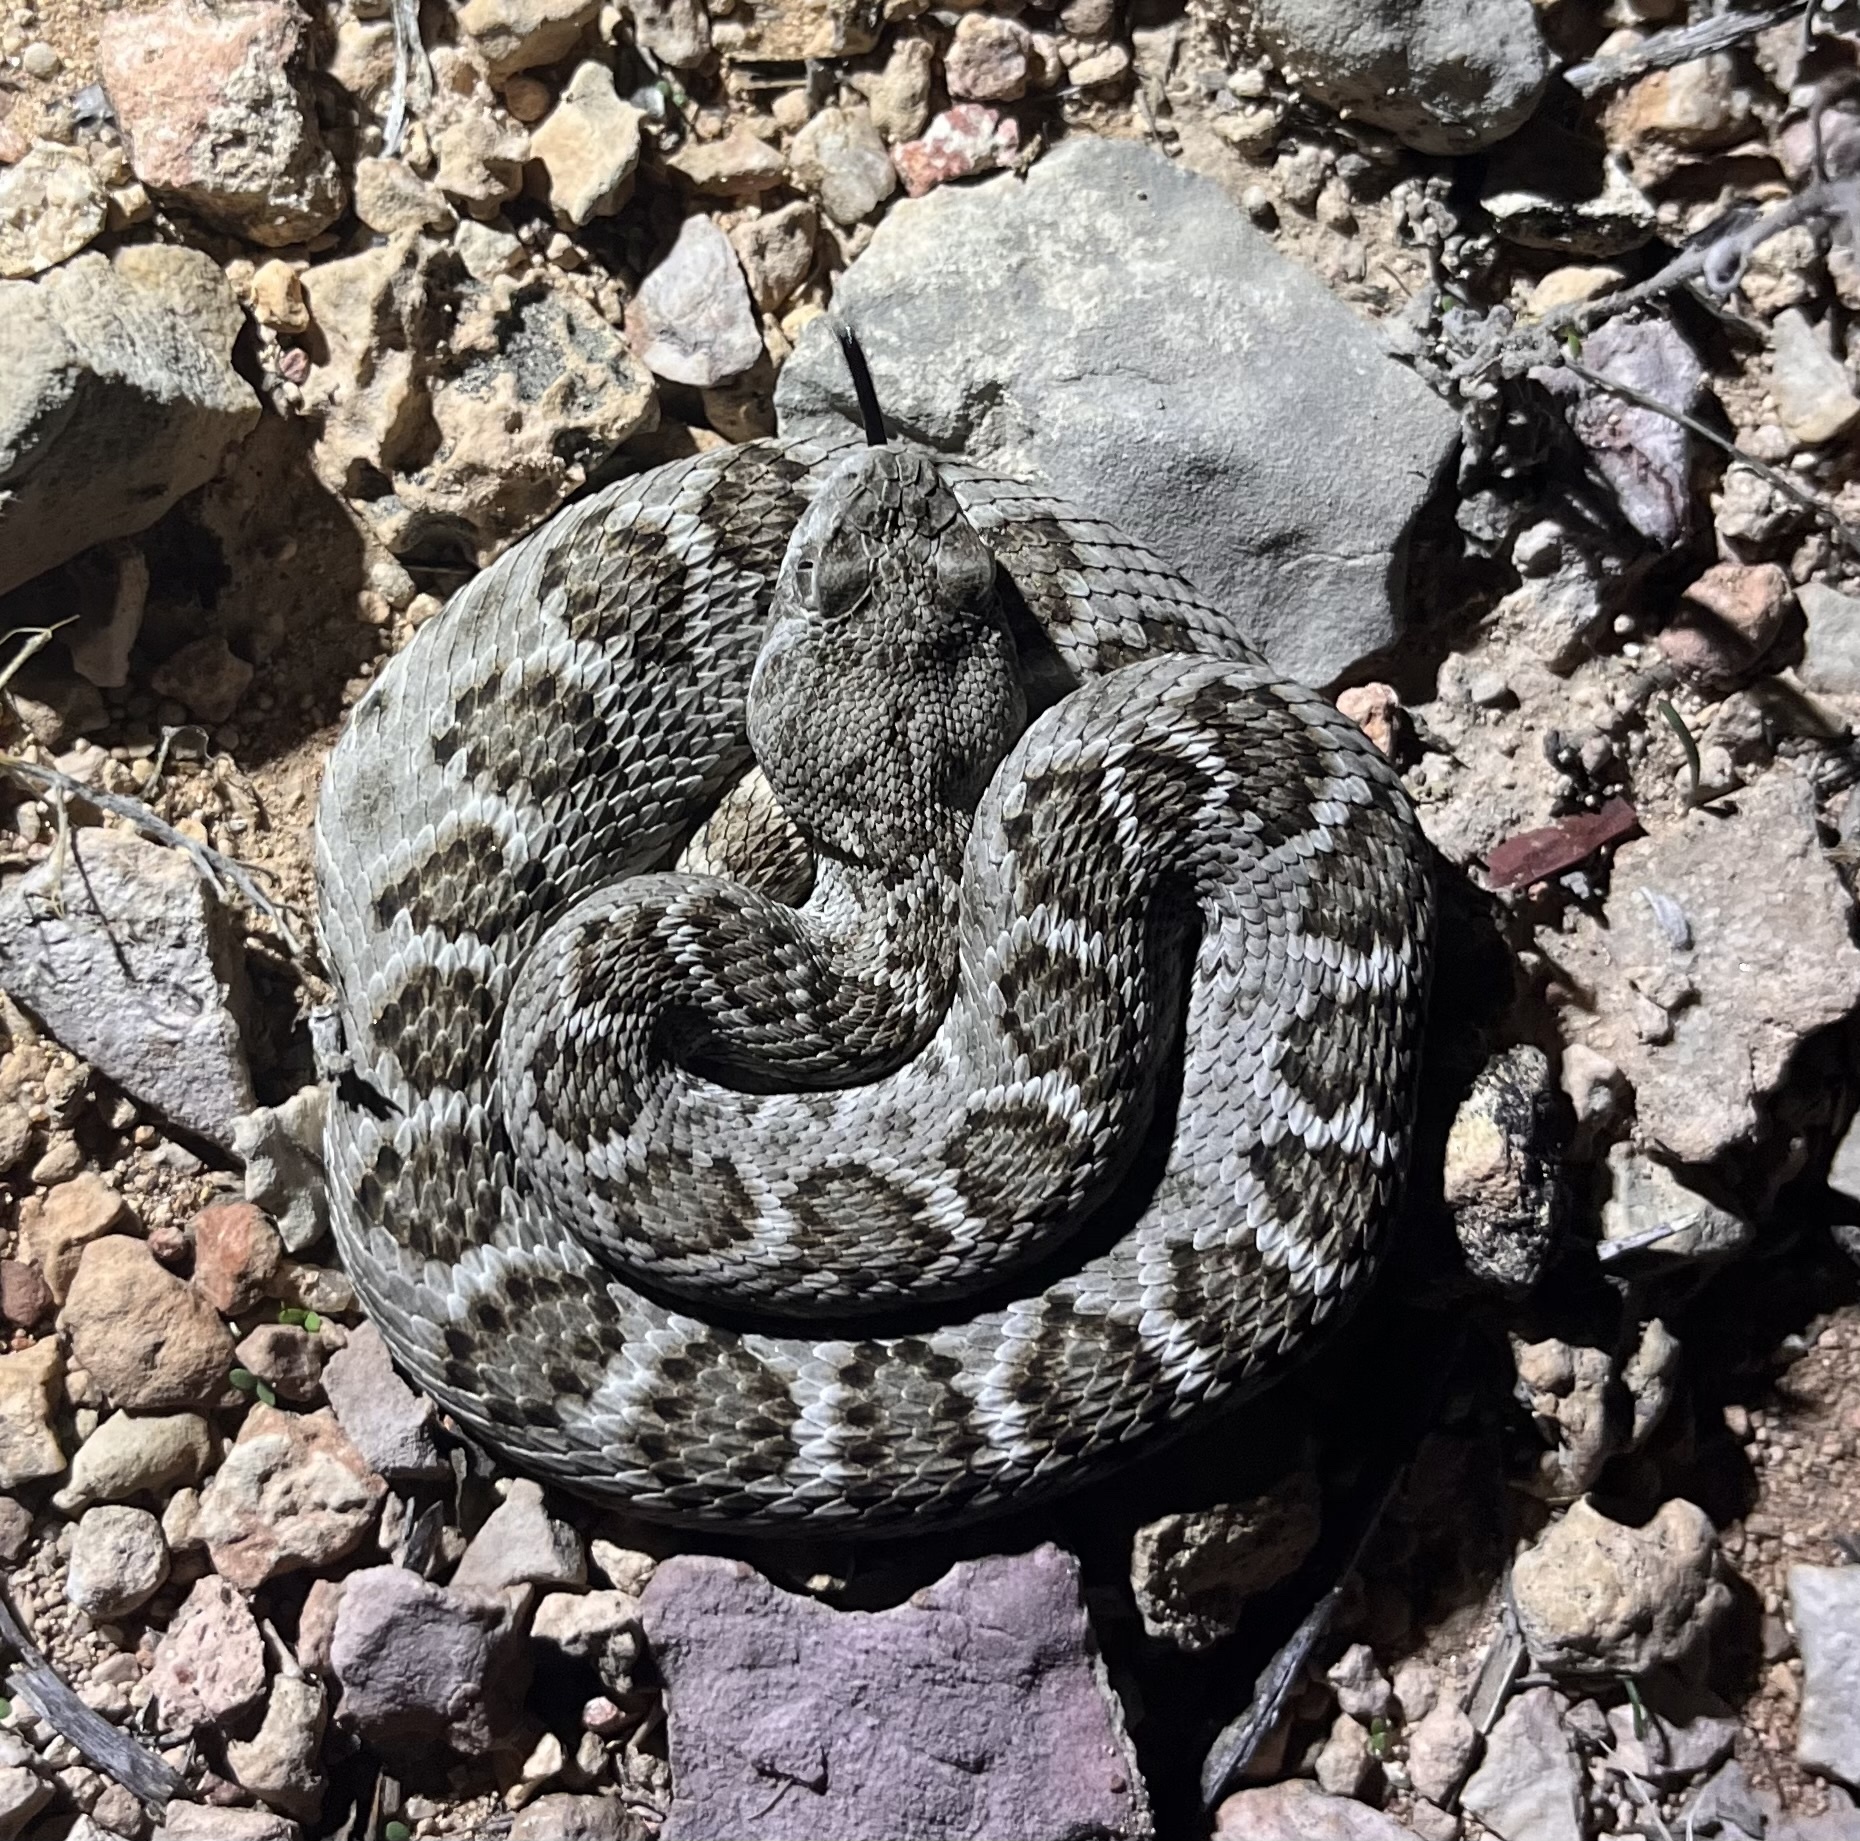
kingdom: Animalia
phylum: Chordata
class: Squamata
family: Viperidae
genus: Crotalus
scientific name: Crotalus atrox
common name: Western diamond-backed rattlesnake
